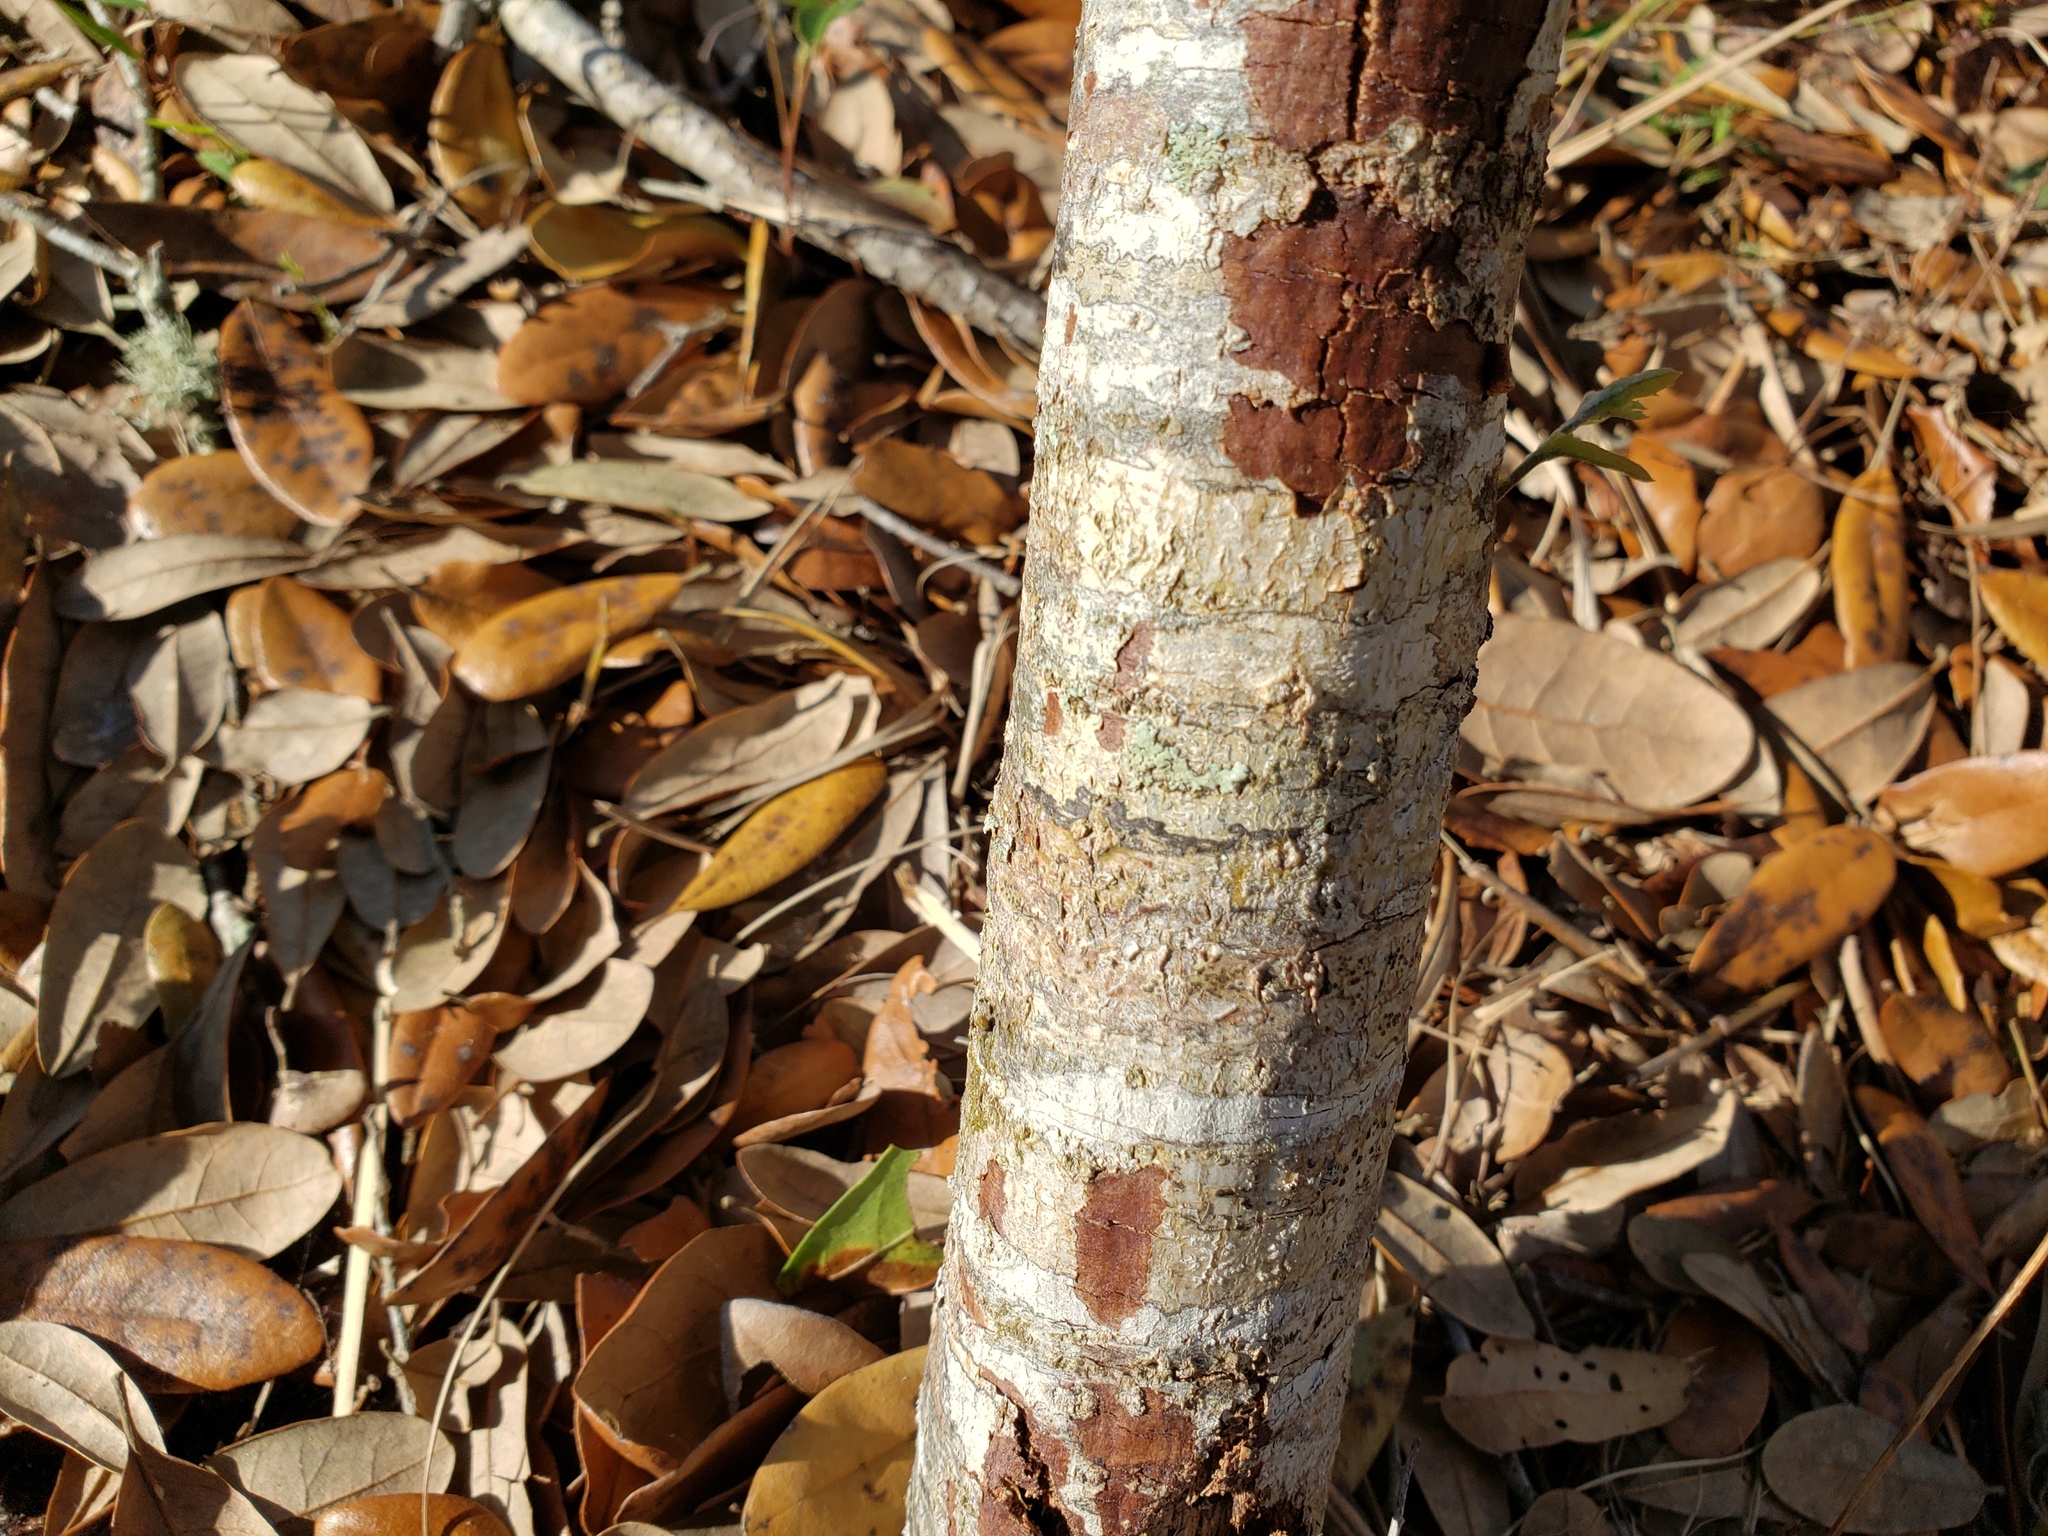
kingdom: Plantae
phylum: Tracheophyta
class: Magnoliopsida
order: Fagales
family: Fagaceae
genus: Quercus
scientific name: Quercus virginiana
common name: Southern live oak
